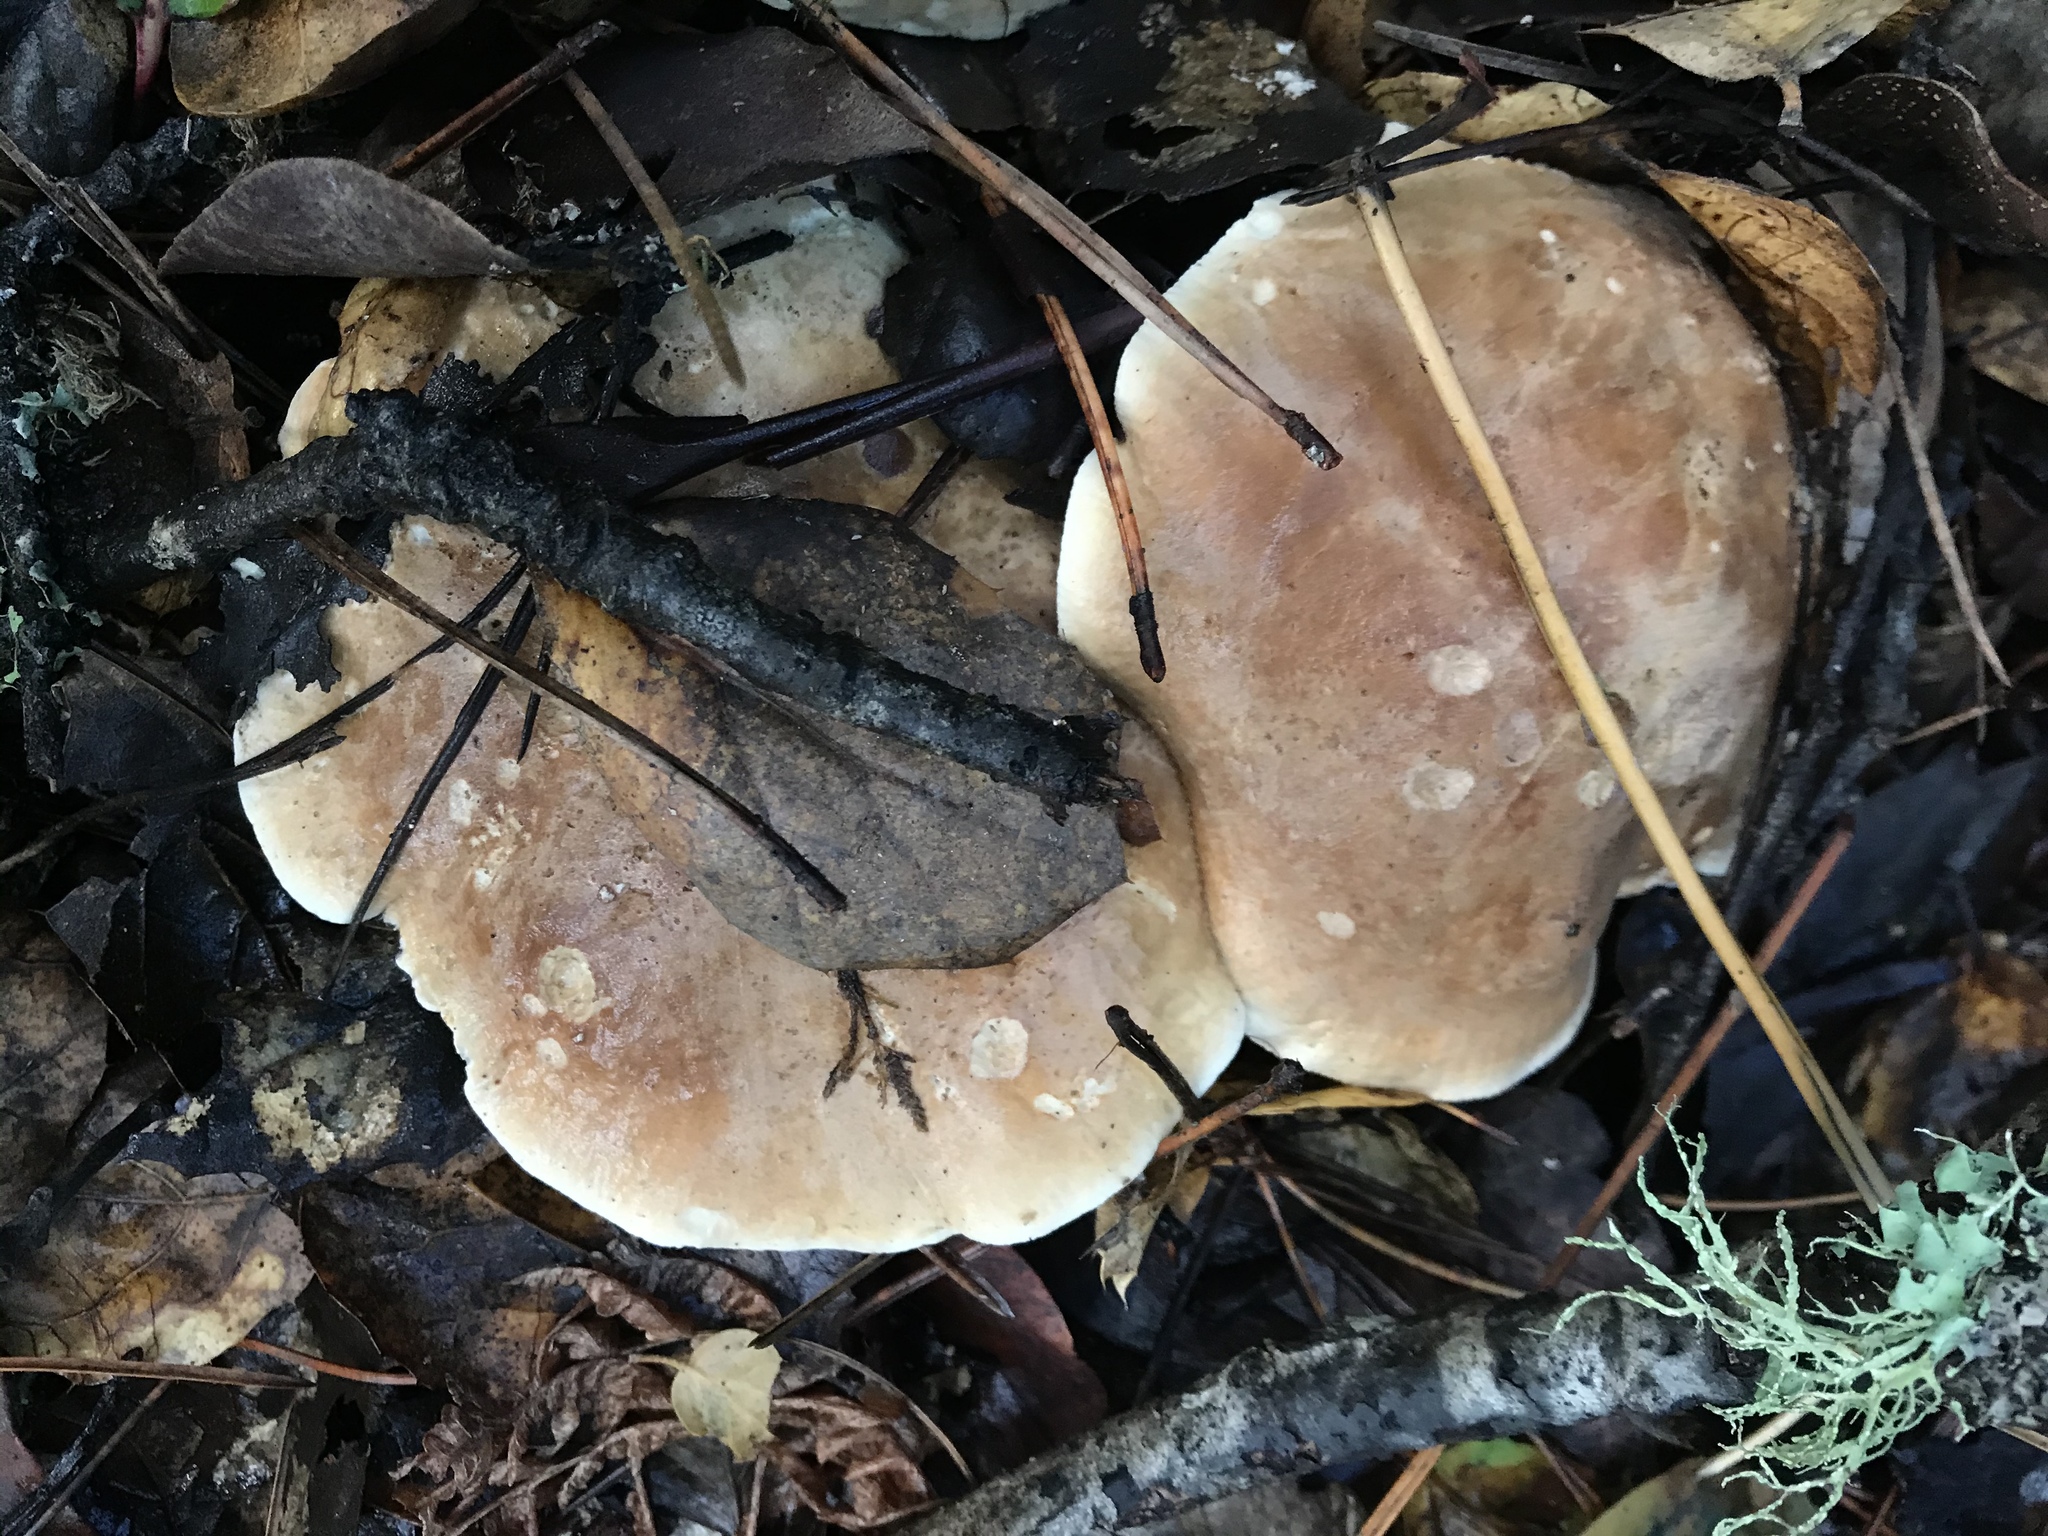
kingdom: Fungi
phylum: Basidiomycota
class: Agaricomycetes
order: Agaricales
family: Tricholomataceae
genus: Leucopaxillus
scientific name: Leucopaxillus gentianeus
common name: Bitter funnel
